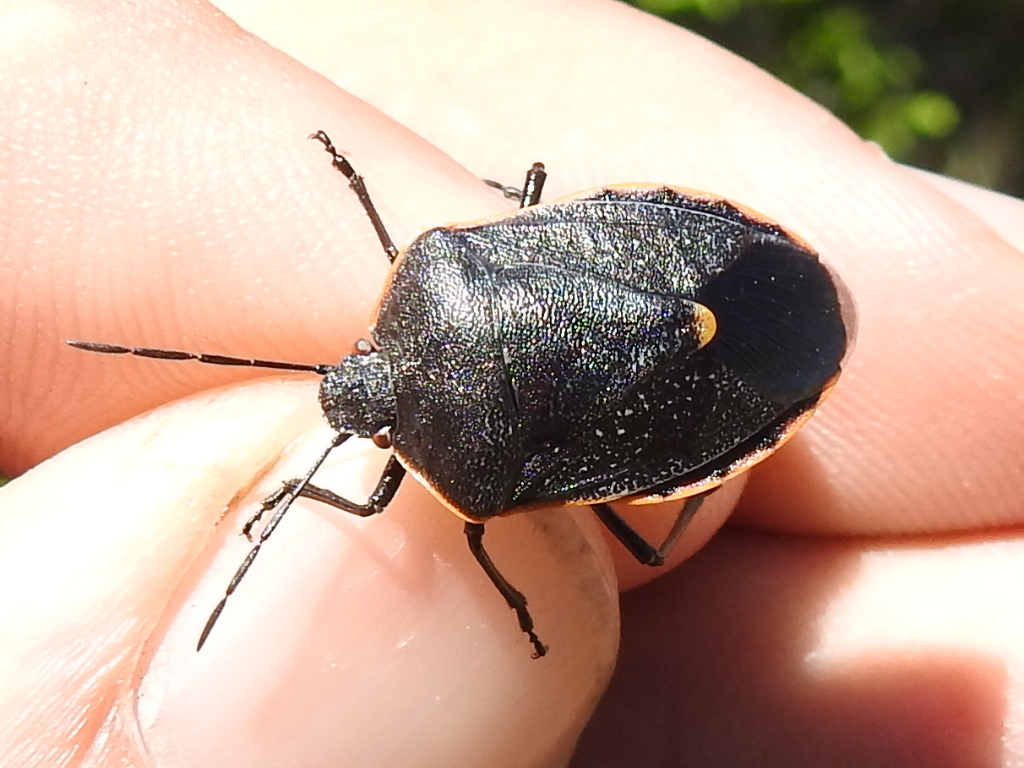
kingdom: Animalia
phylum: Arthropoda
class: Insecta
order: Hemiptera
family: Pentatomidae
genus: Chlorochroa
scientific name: Chlorochroa ligata
